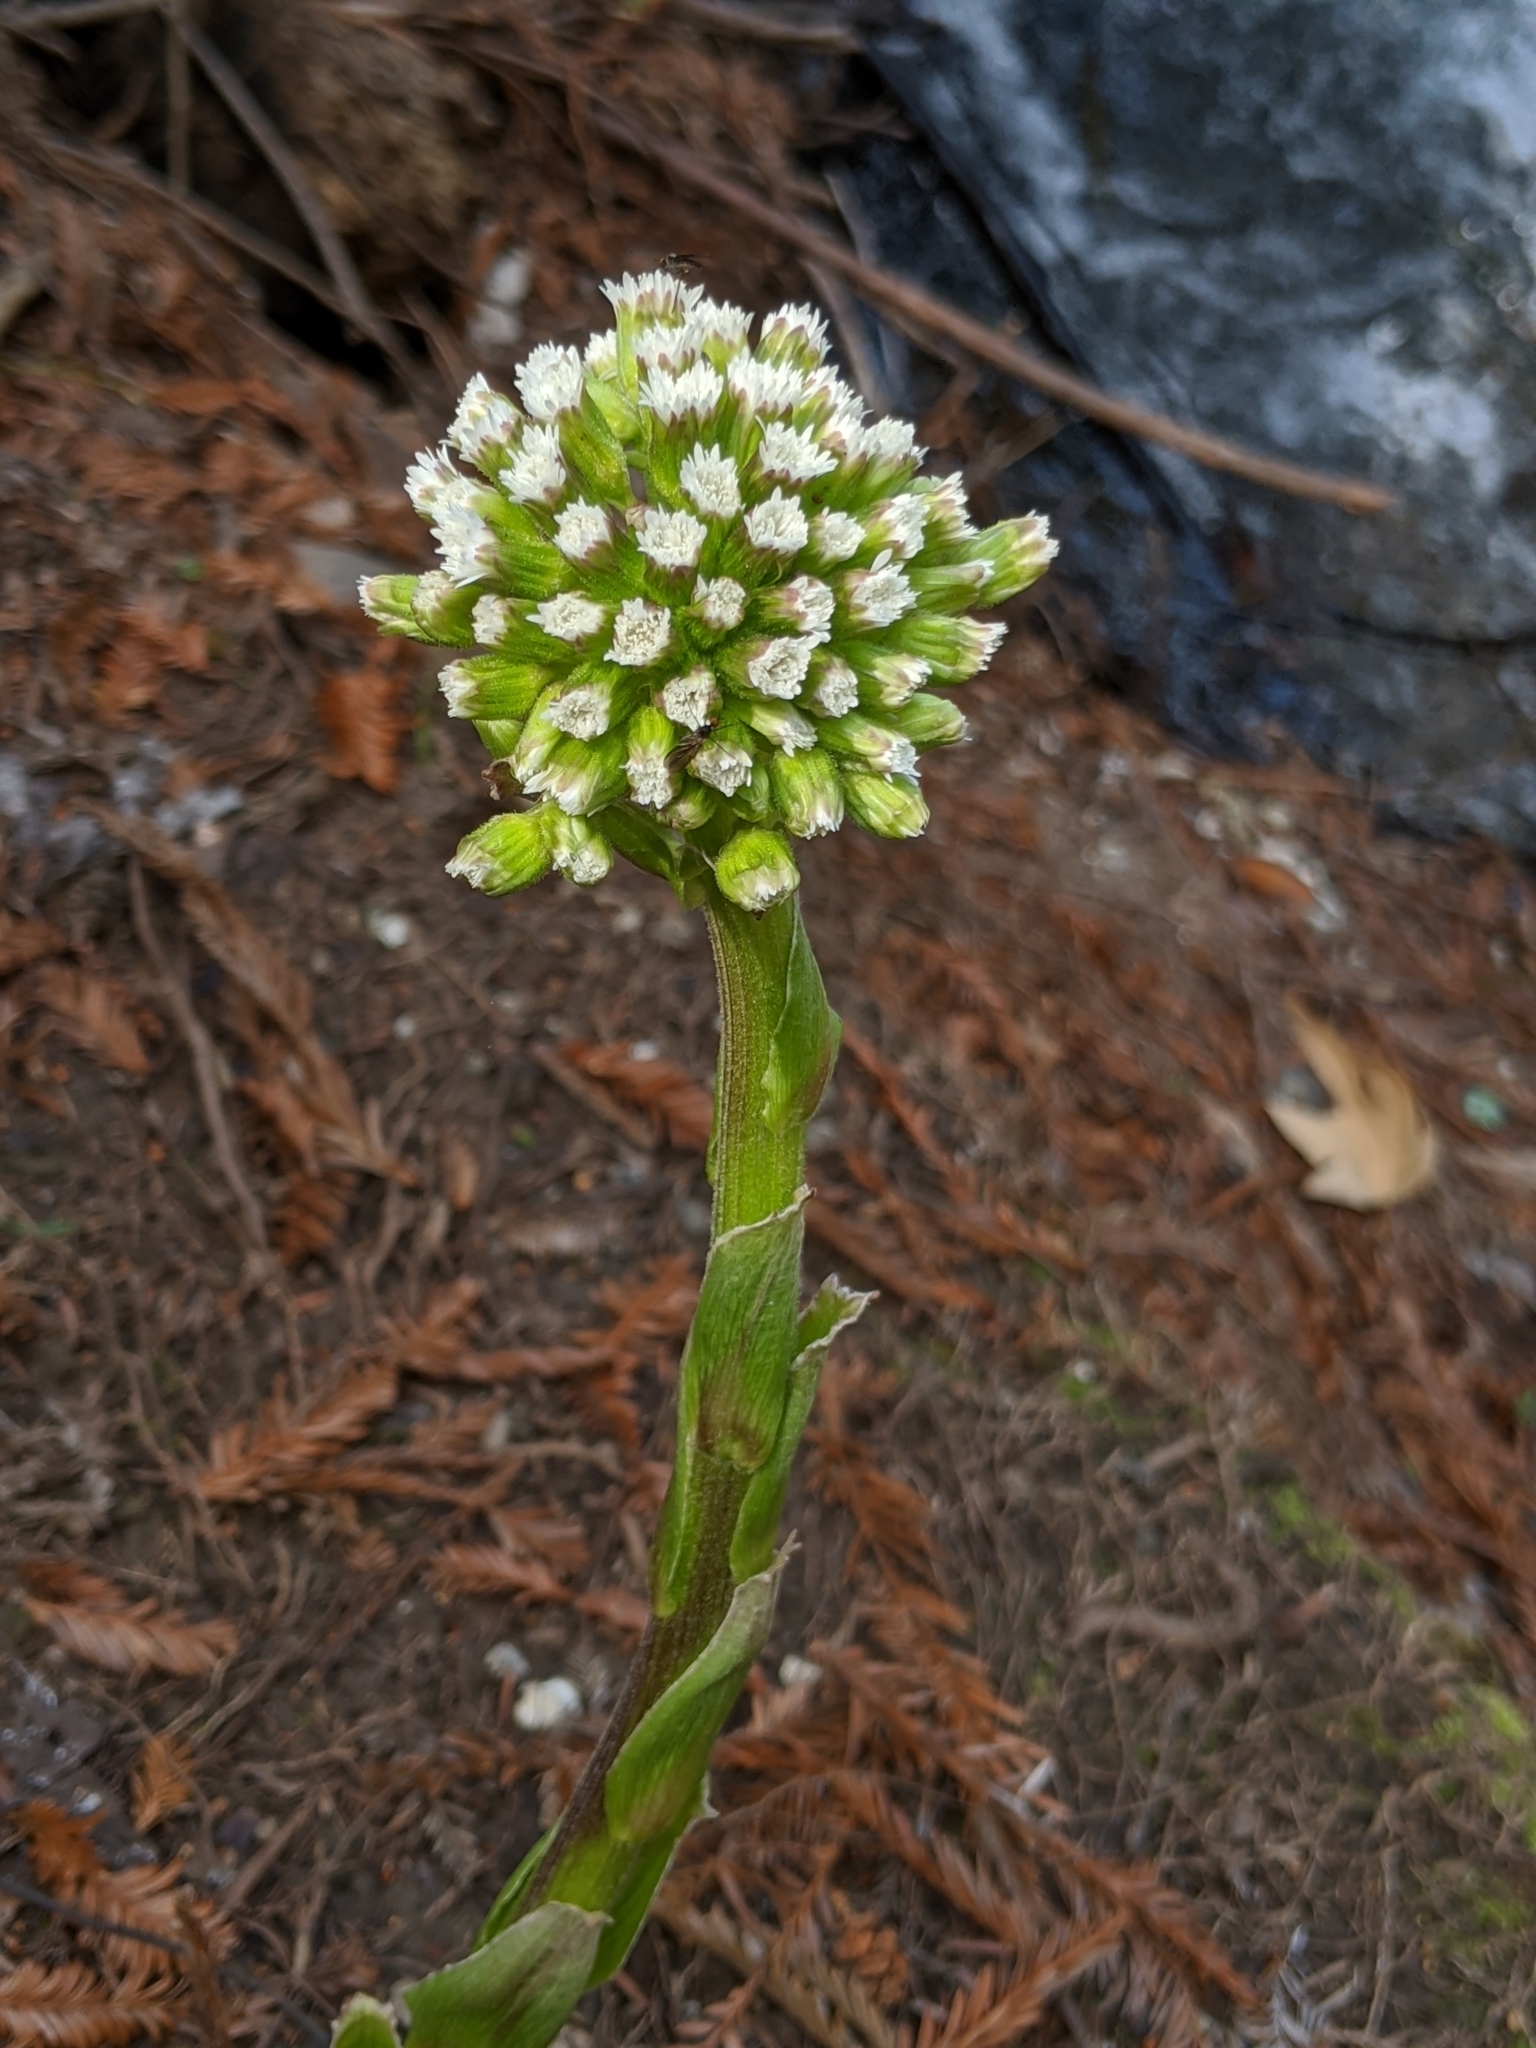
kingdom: Plantae
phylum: Tracheophyta
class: Magnoliopsida
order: Asterales
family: Asteraceae
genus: Petasites
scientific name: Petasites frigidus
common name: Arctic butterbur
